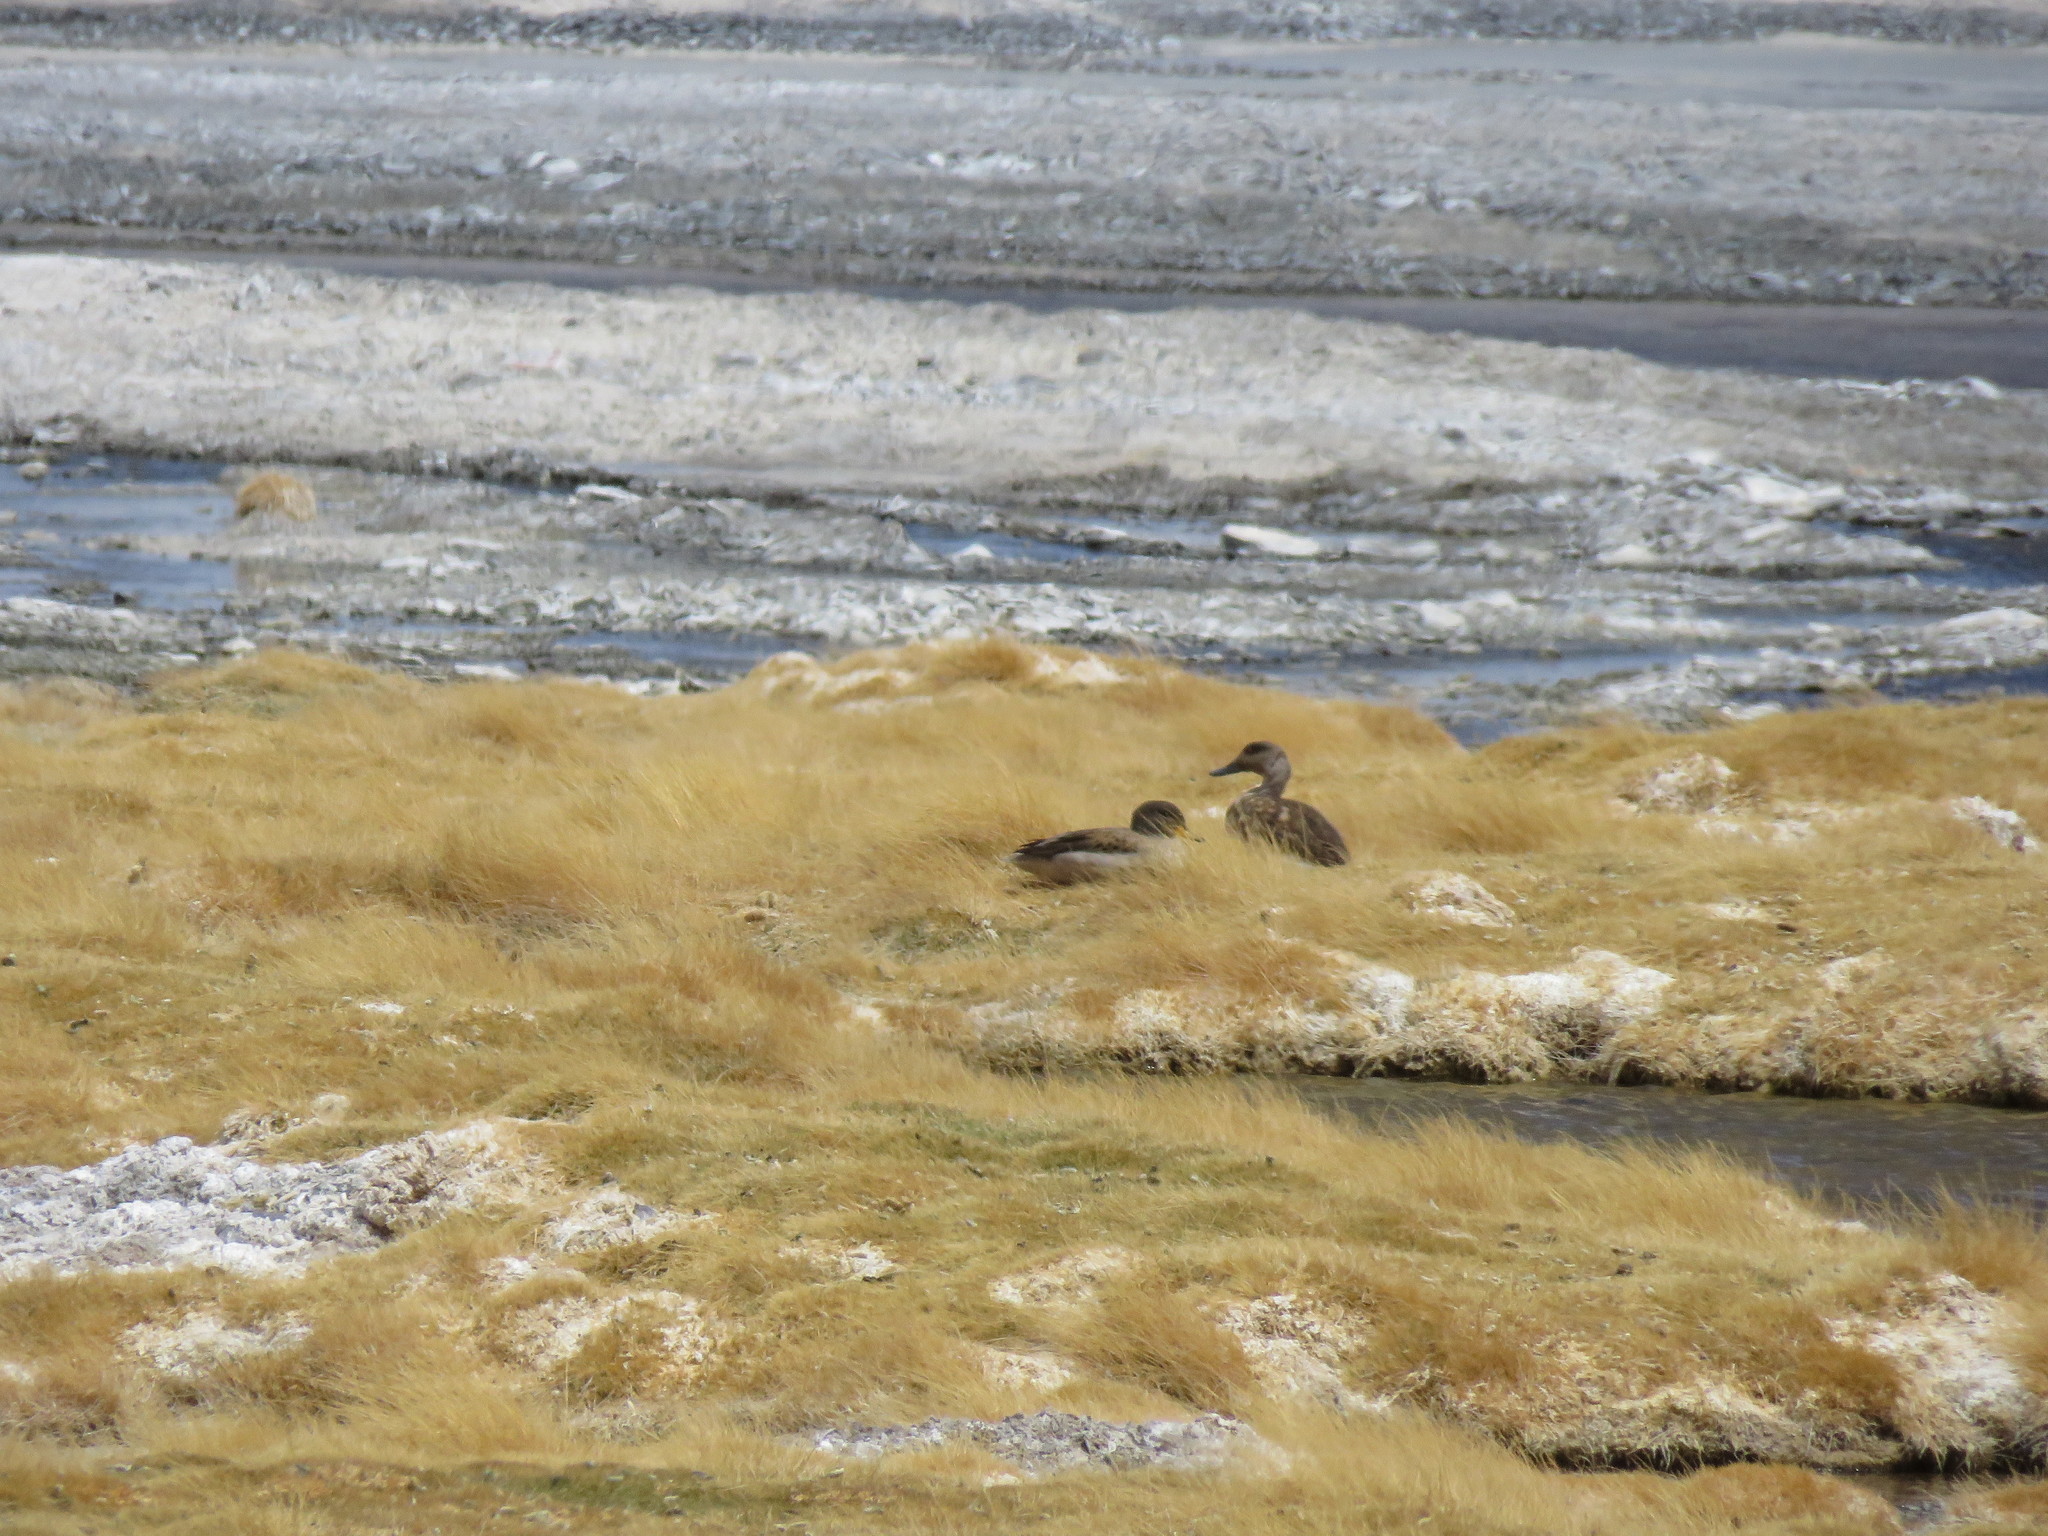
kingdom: Animalia
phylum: Chordata
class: Aves
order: Anseriformes
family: Anatidae
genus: Lophonetta
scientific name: Lophonetta specularioides
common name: Crested duck
